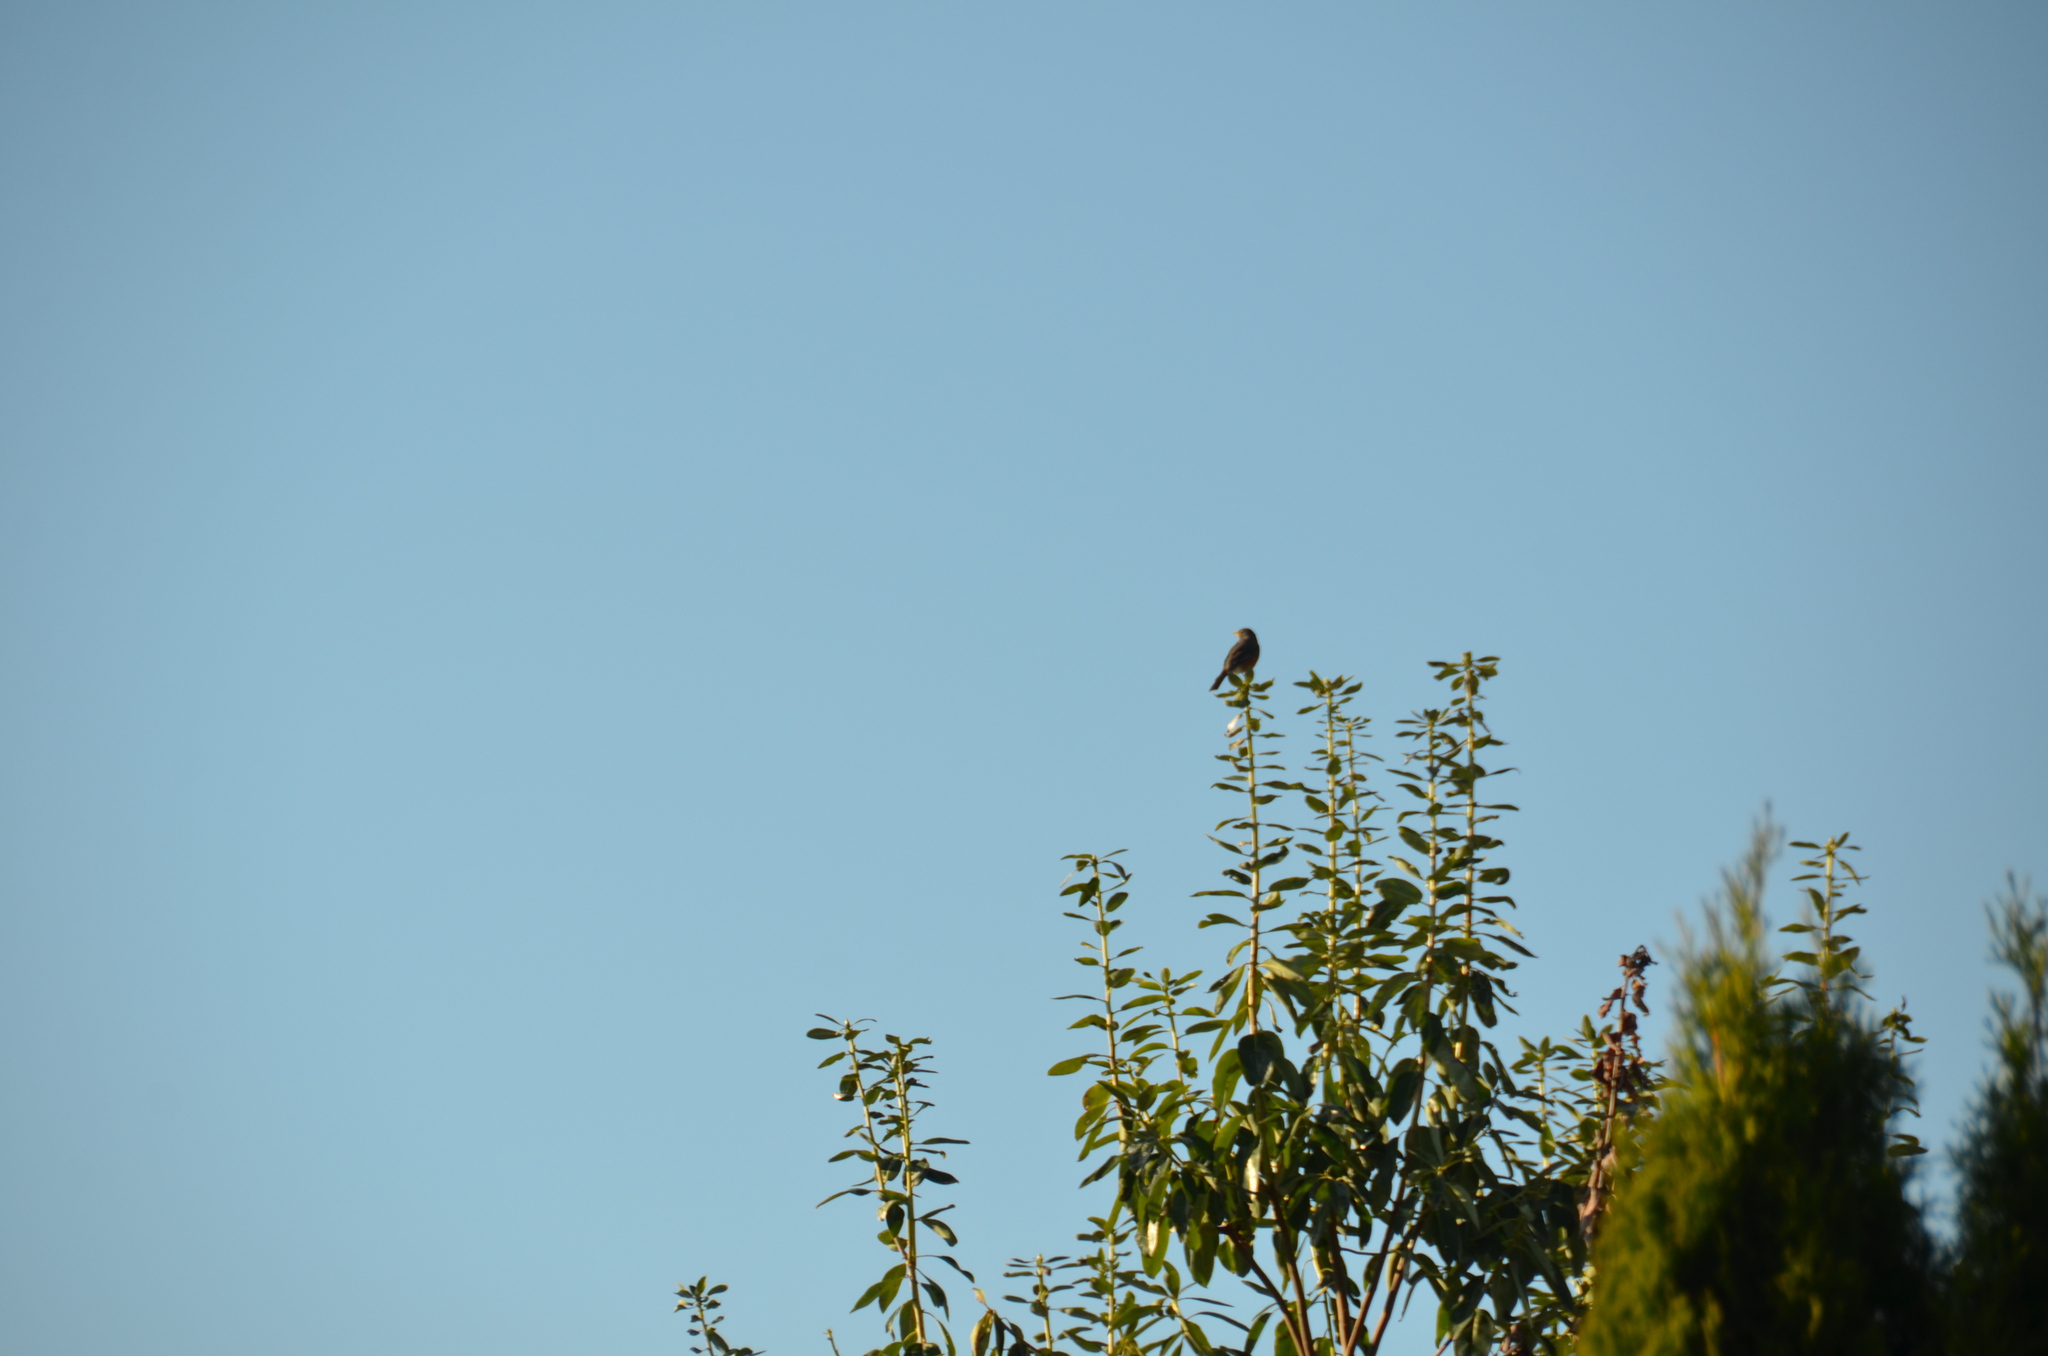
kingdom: Animalia
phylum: Chordata
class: Aves
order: Passeriformes
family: Turdidae
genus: Turdus
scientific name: Turdus migratorius
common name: American robin
